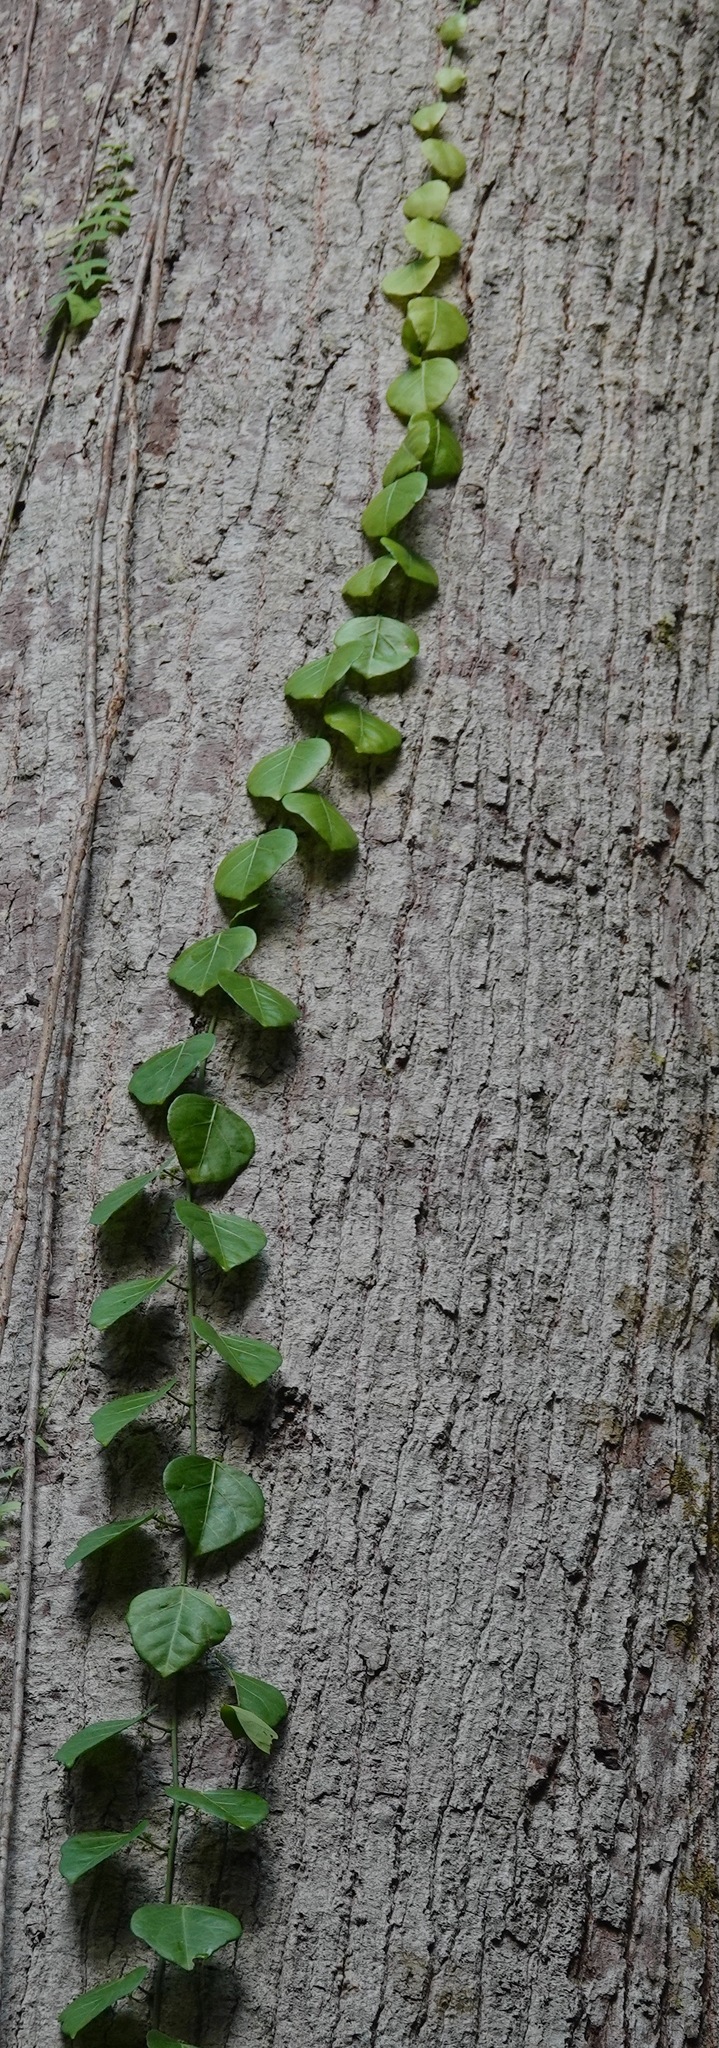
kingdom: Plantae
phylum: Tracheophyta
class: Magnoliopsida
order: Malpighiales
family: Passifloraceae
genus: Adenia
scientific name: Adenia cordifolia
